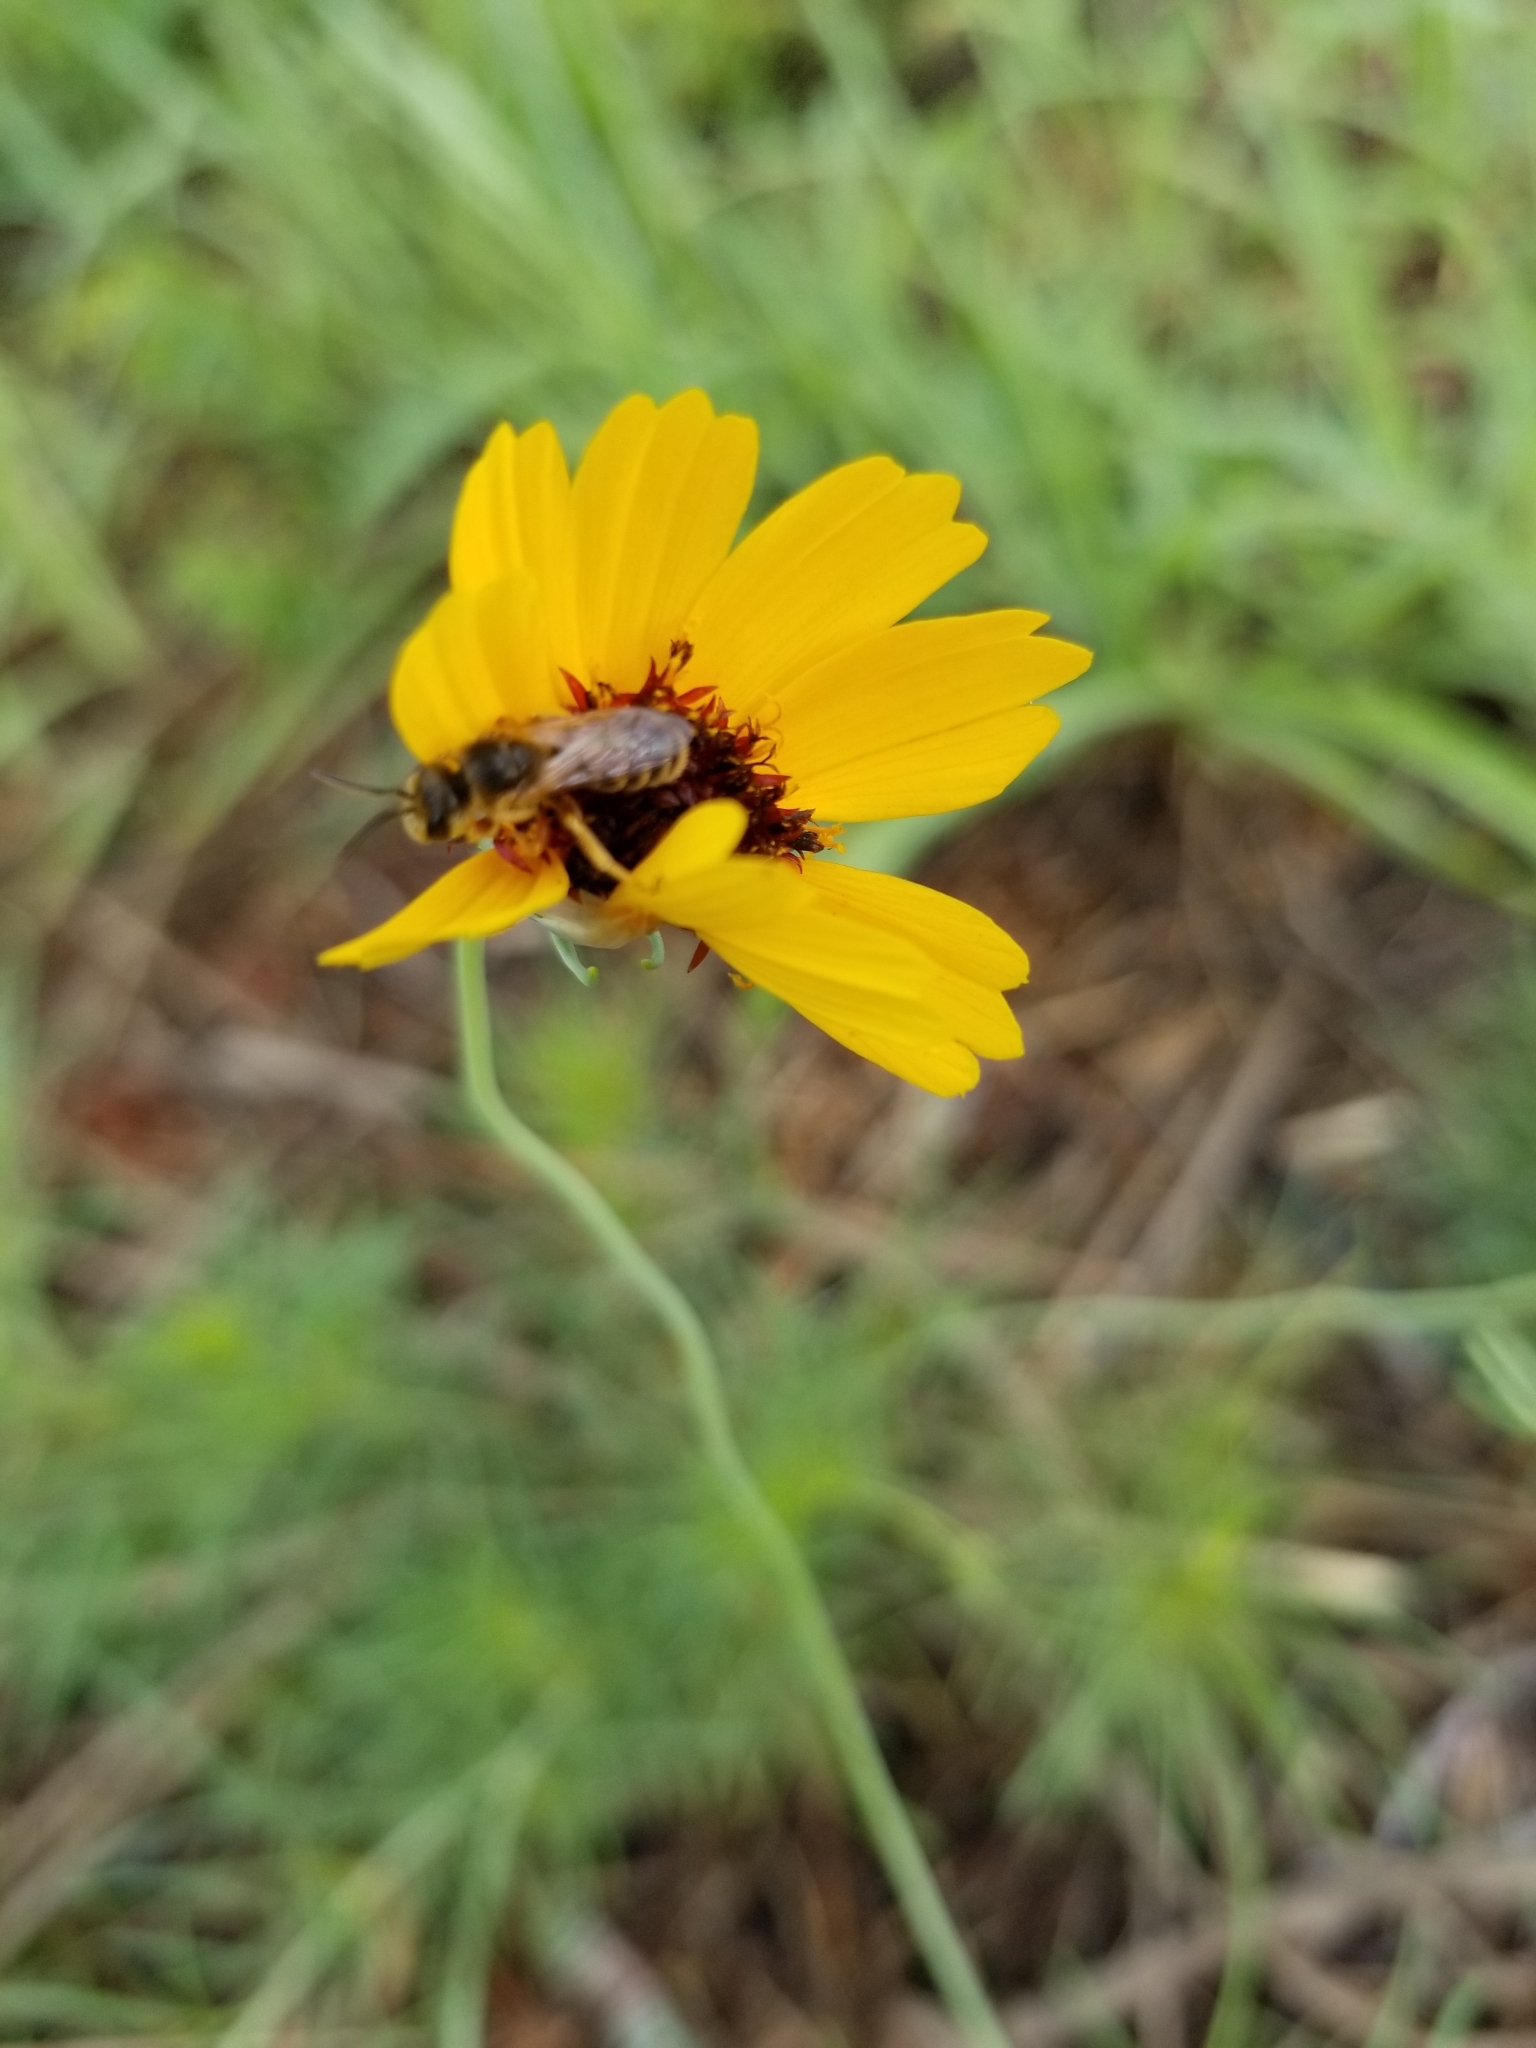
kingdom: Animalia
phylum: Arthropoda
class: Insecta
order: Hymenoptera
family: Halictidae
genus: Halictus
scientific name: Halictus ligatus
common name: Ligated furrow bee
